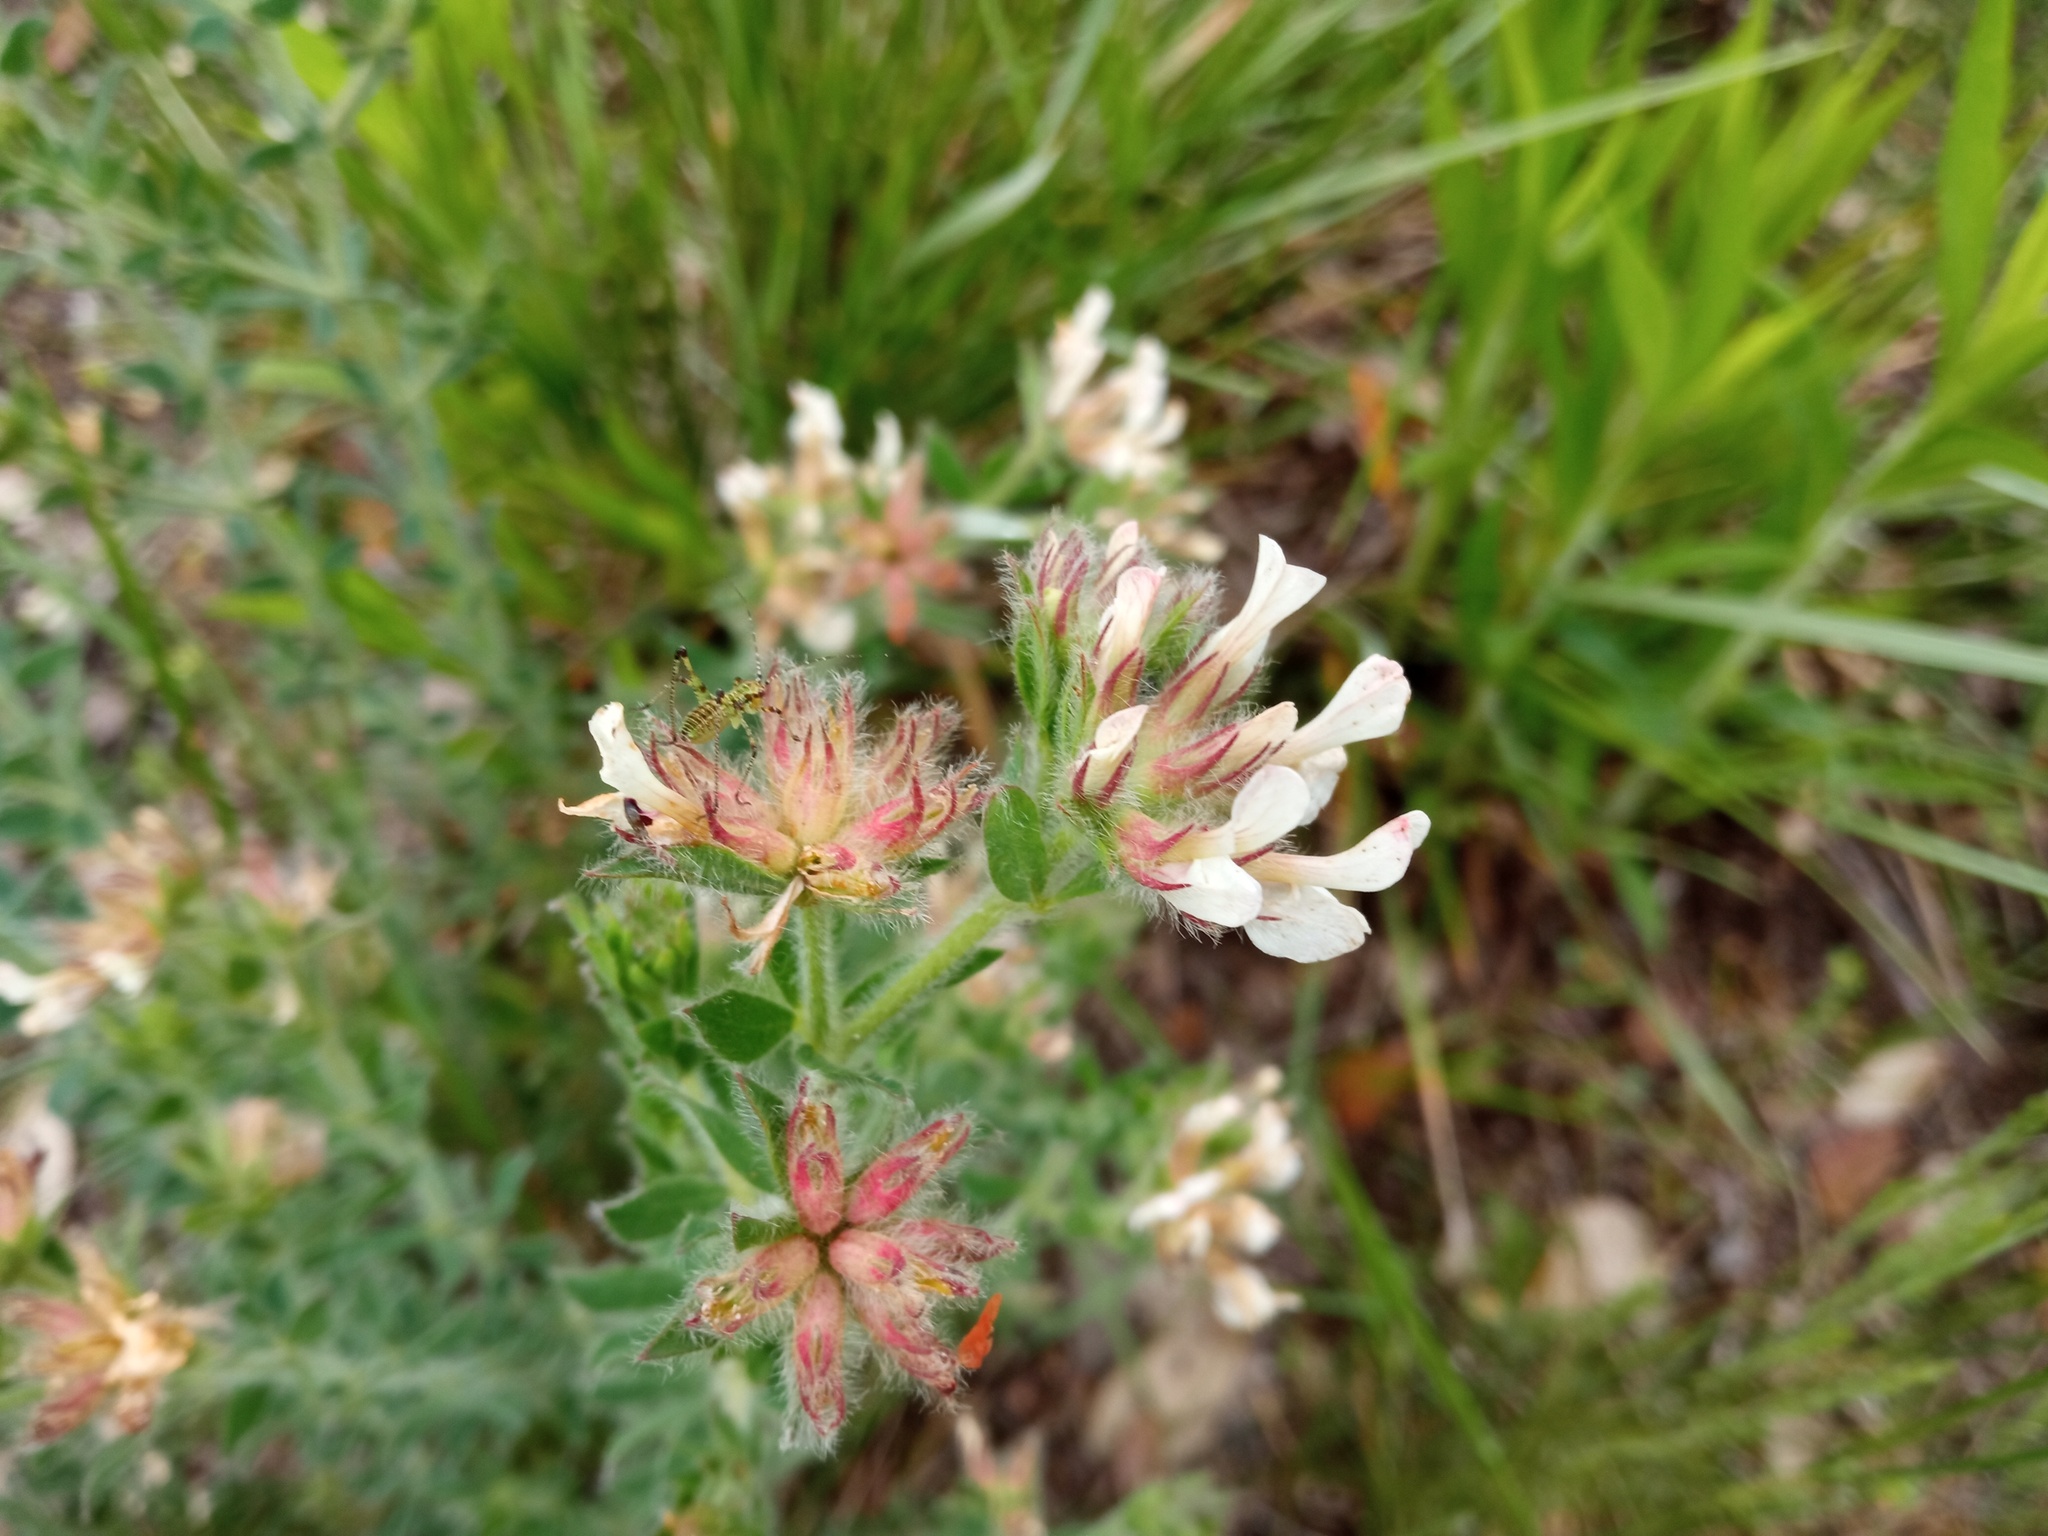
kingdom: Plantae
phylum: Tracheophyta
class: Magnoliopsida
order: Fabales
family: Fabaceae
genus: Lotus
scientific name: Lotus hirsutus
